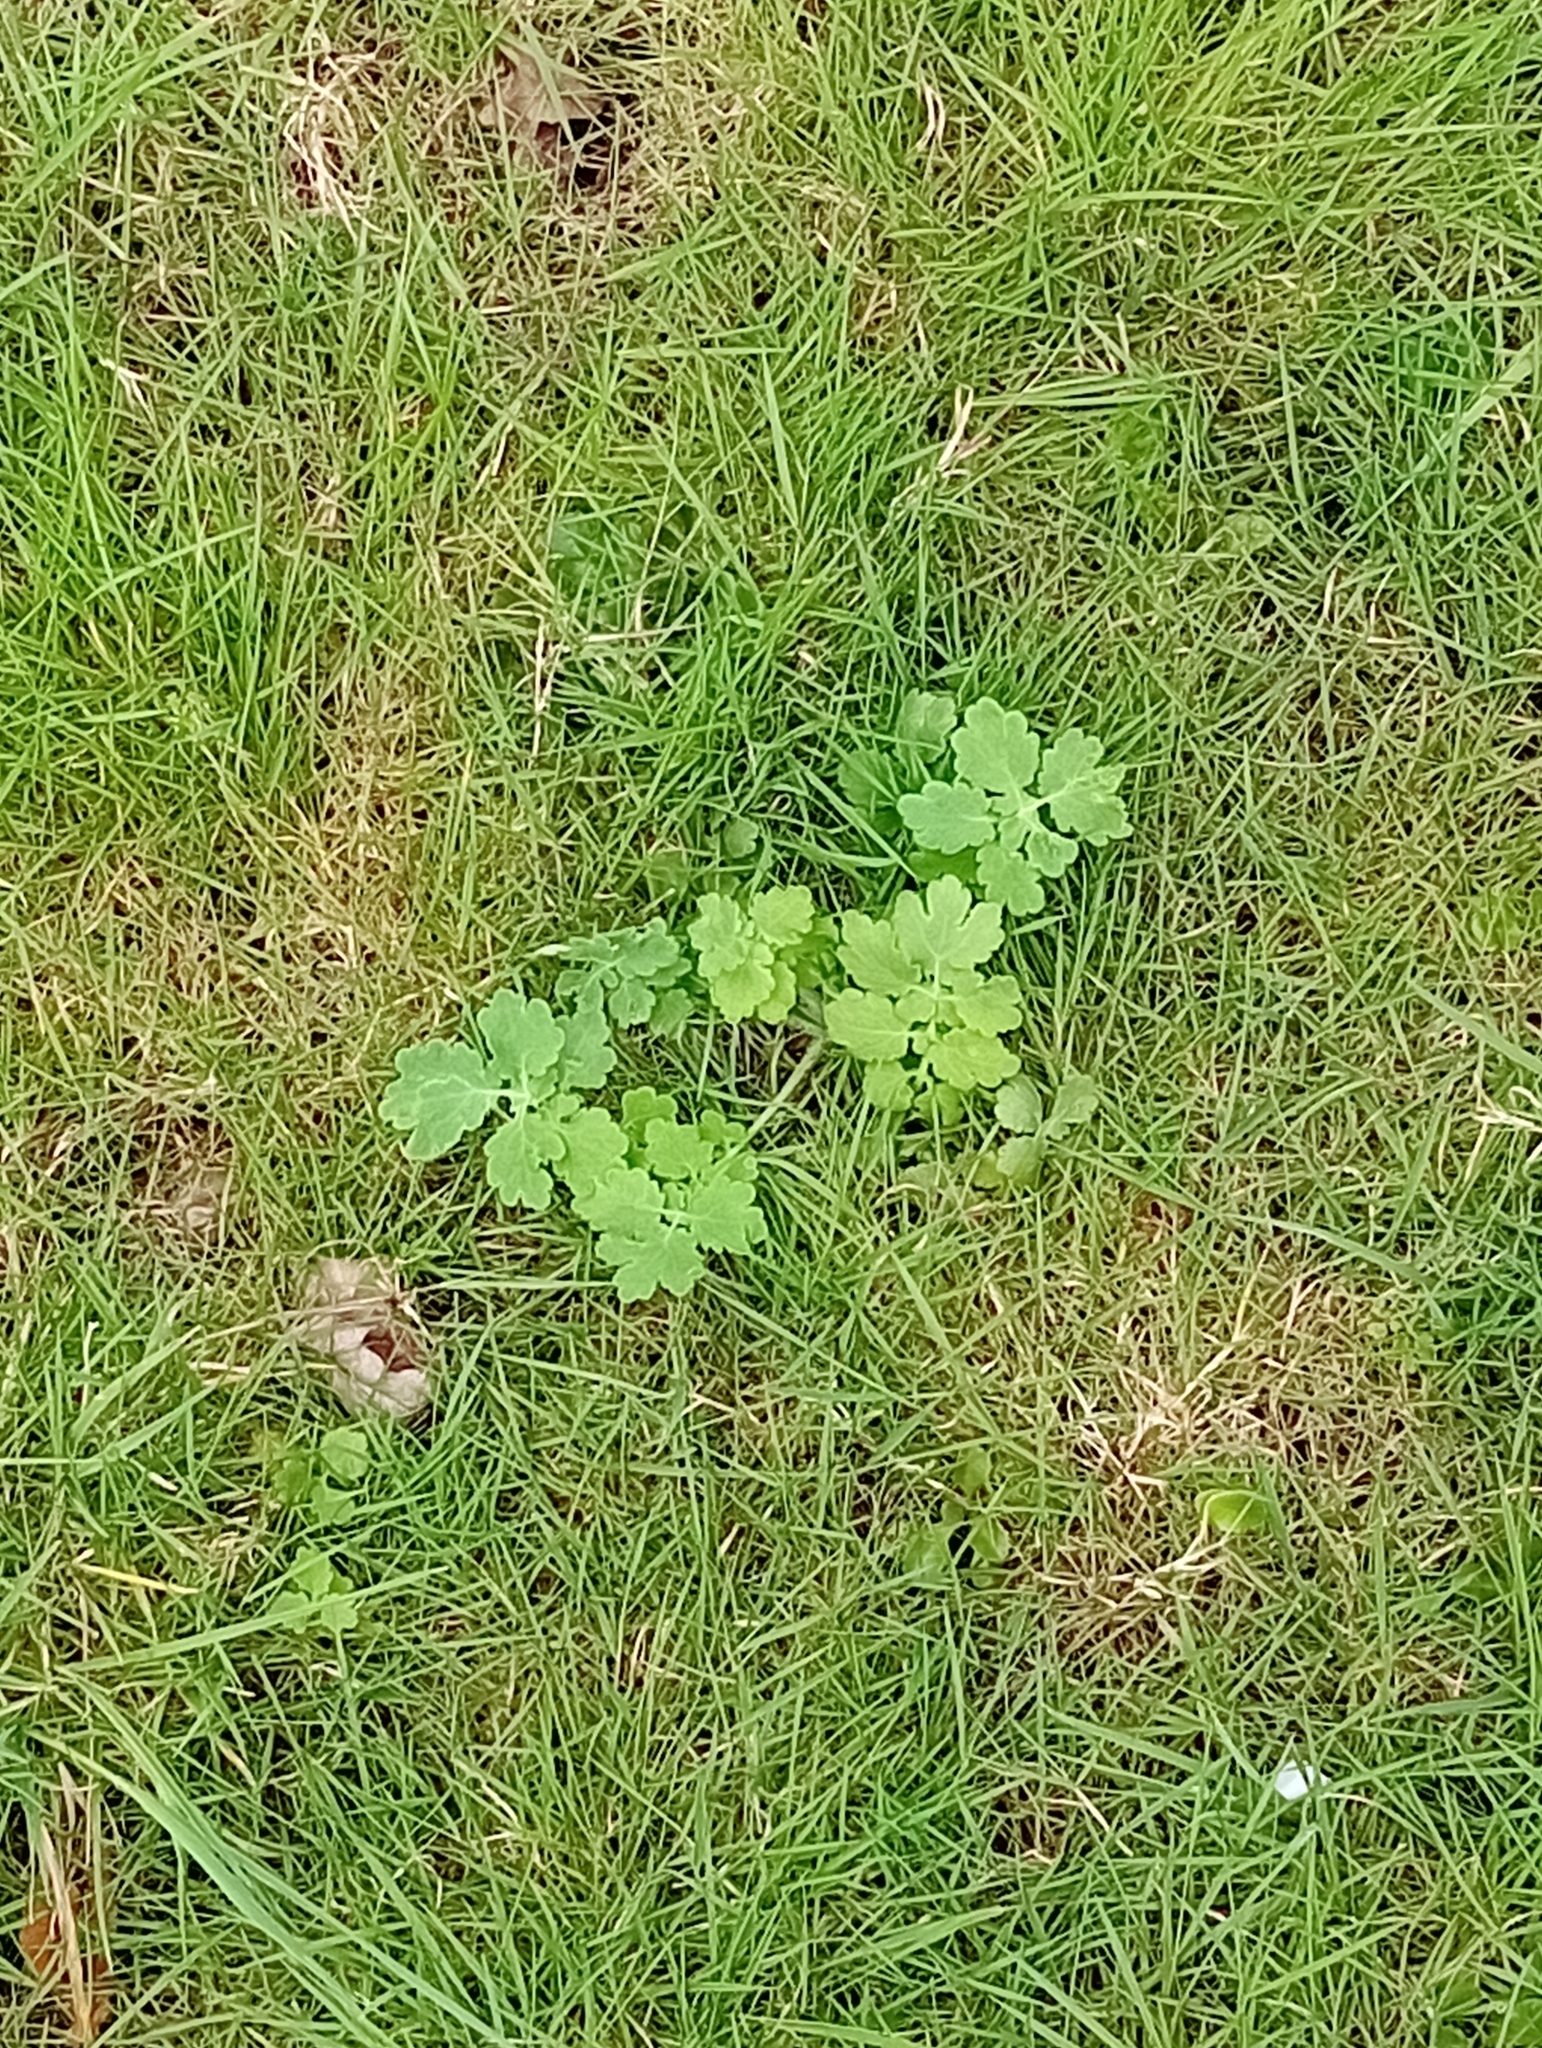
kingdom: Plantae
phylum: Tracheophyta
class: Magnoliopsida
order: Ranunculales
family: Papaveraceae
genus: Chelidonium
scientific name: Chelidonium majus
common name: Greater celandine
